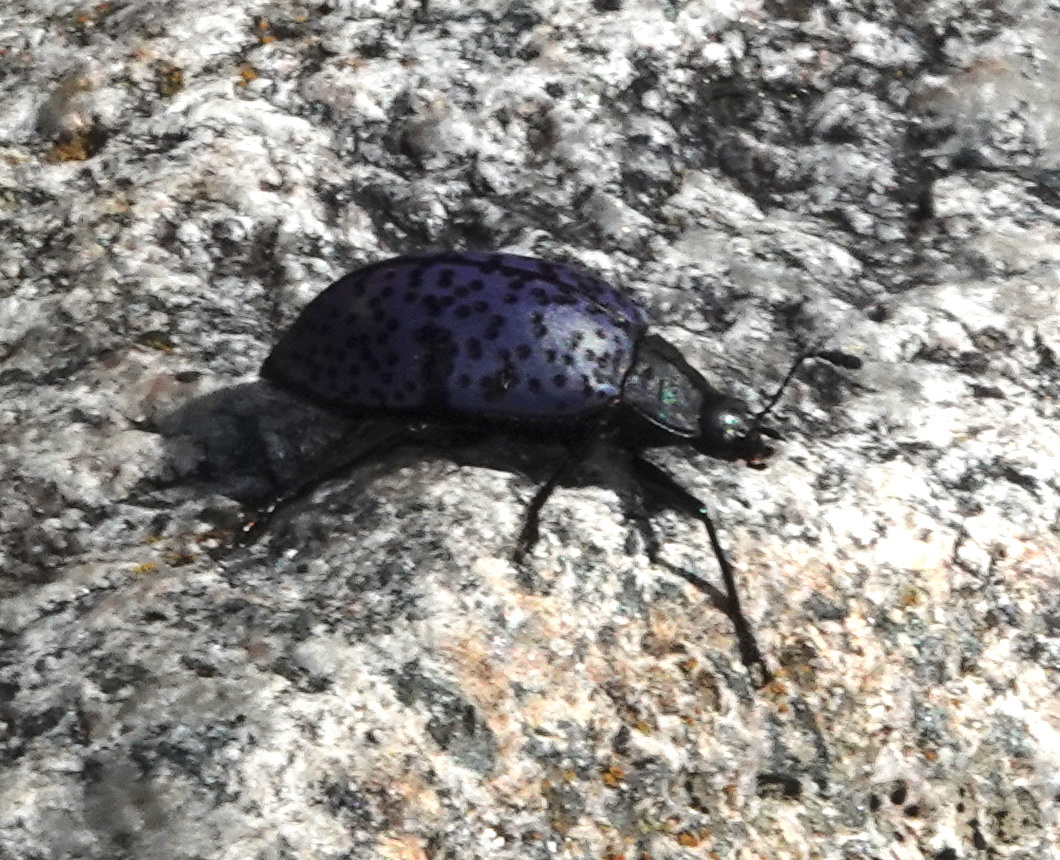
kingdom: Animalia
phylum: Arthropoda
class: Insecta
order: Coleoptera
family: Erotylidae
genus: Gibbifer
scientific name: Gibbifer californicus
